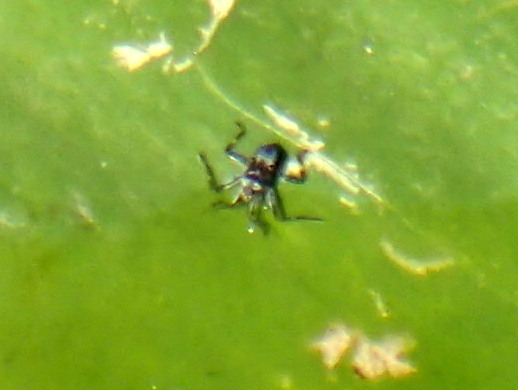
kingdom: Animalia
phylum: Arthropoda
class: Insecta
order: Hemiptera
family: Veliidae
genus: Platyvelia
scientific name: Platyvelia brachialis
